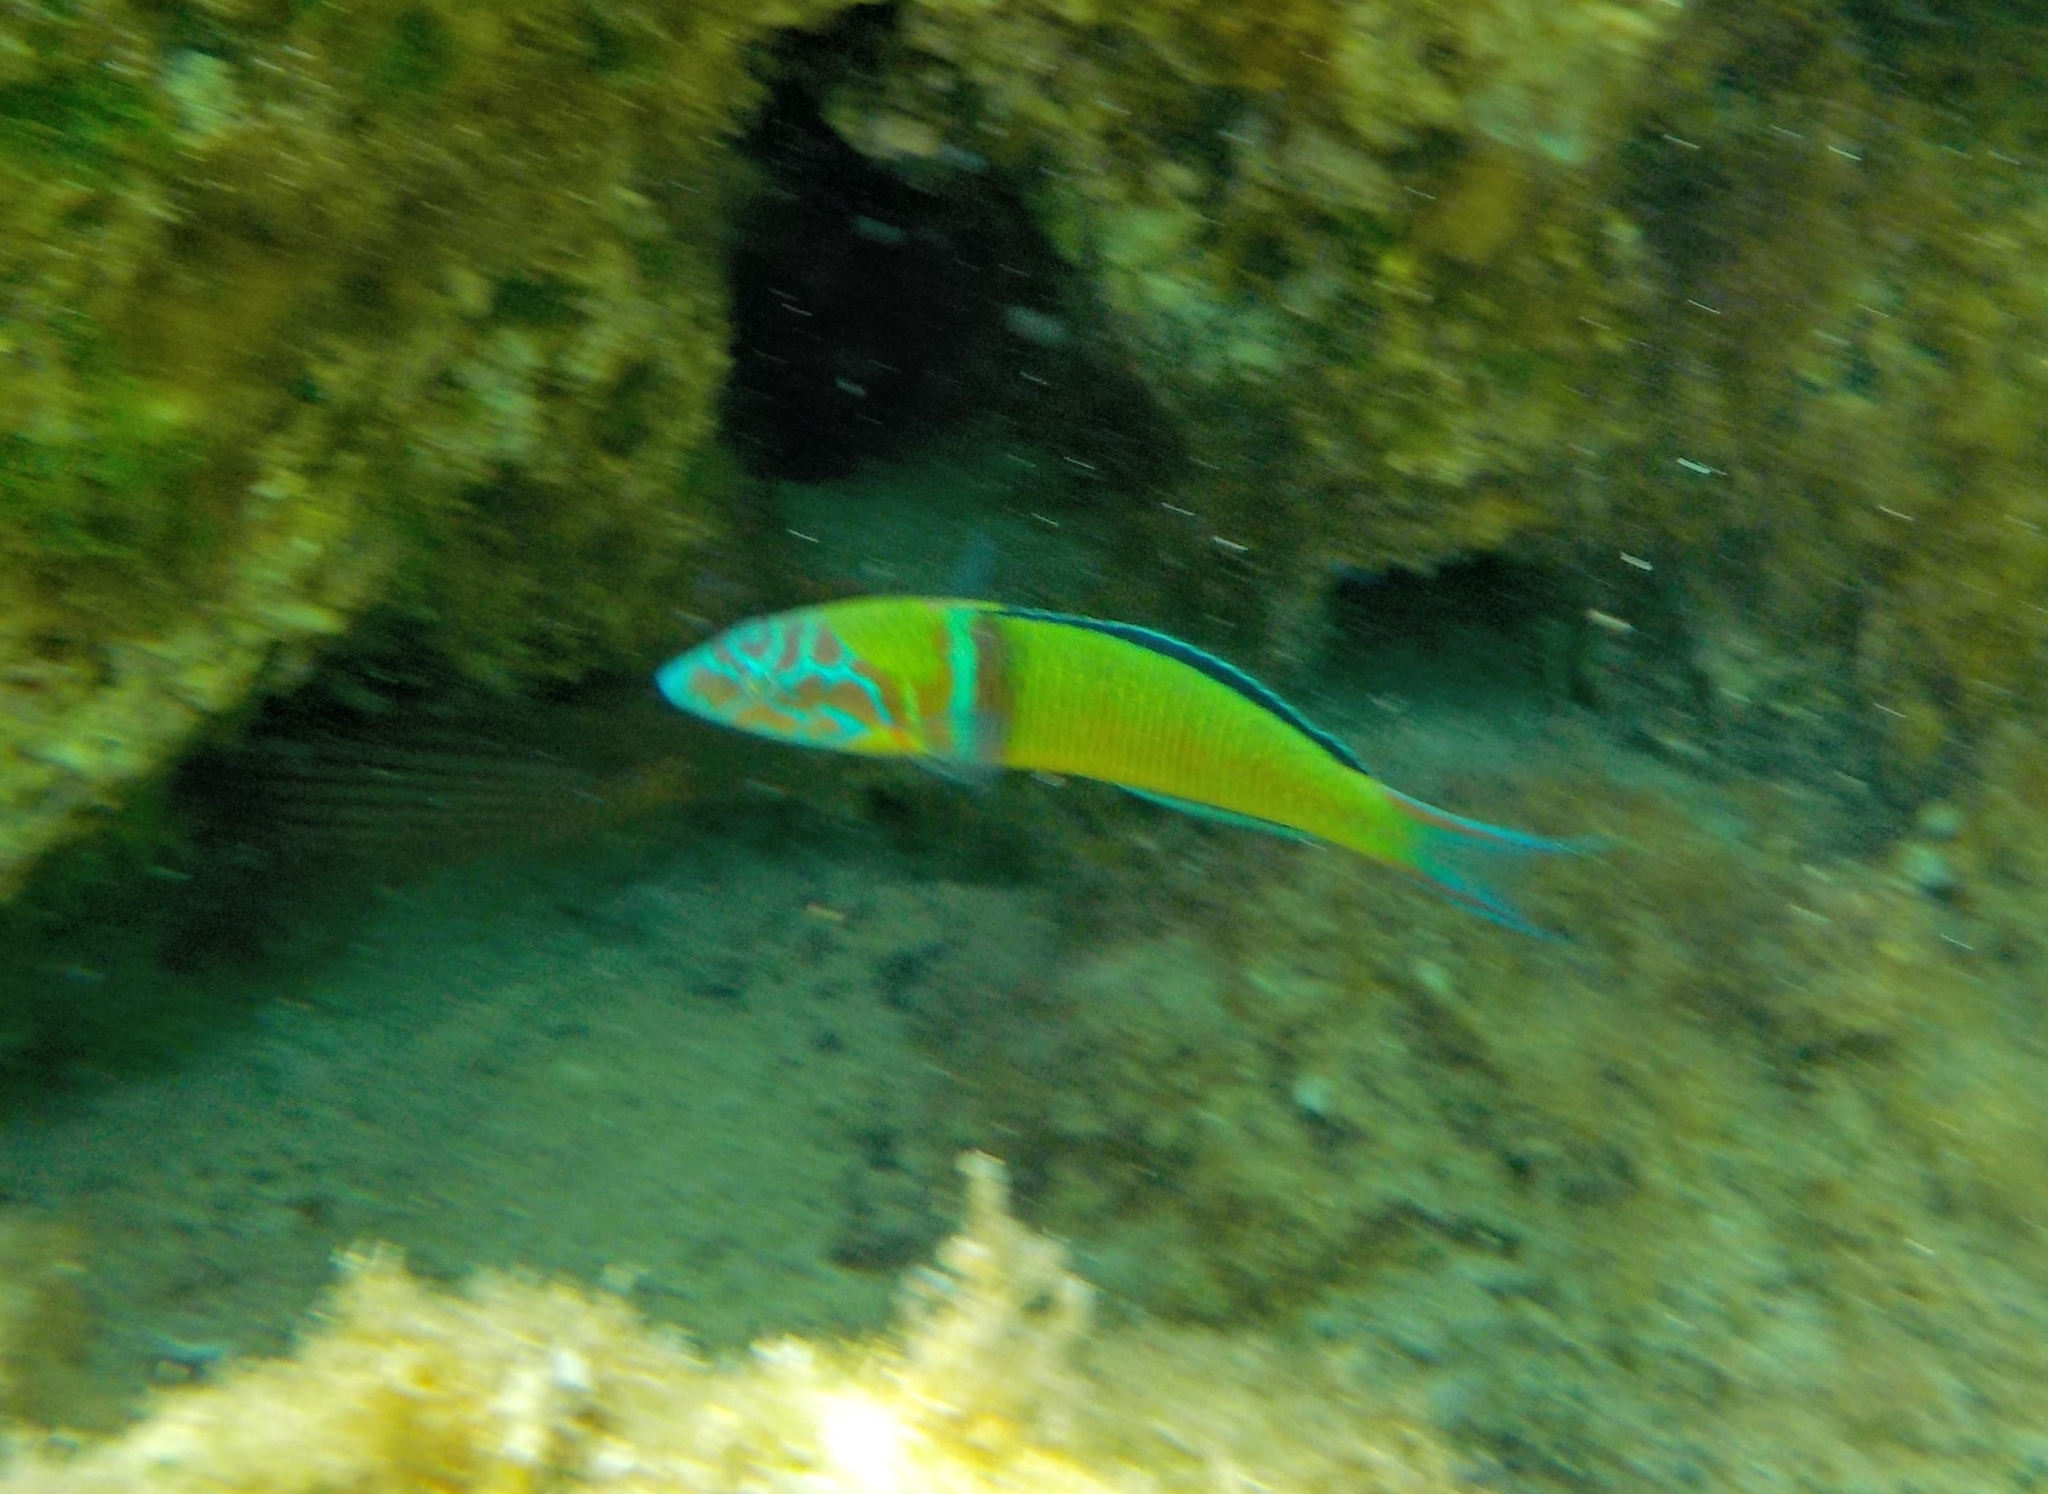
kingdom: Animalia
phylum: Chordata
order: Perciformes
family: Labridae
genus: Thalassoma
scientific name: Thalassoma pavo
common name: Ornate wrasse
